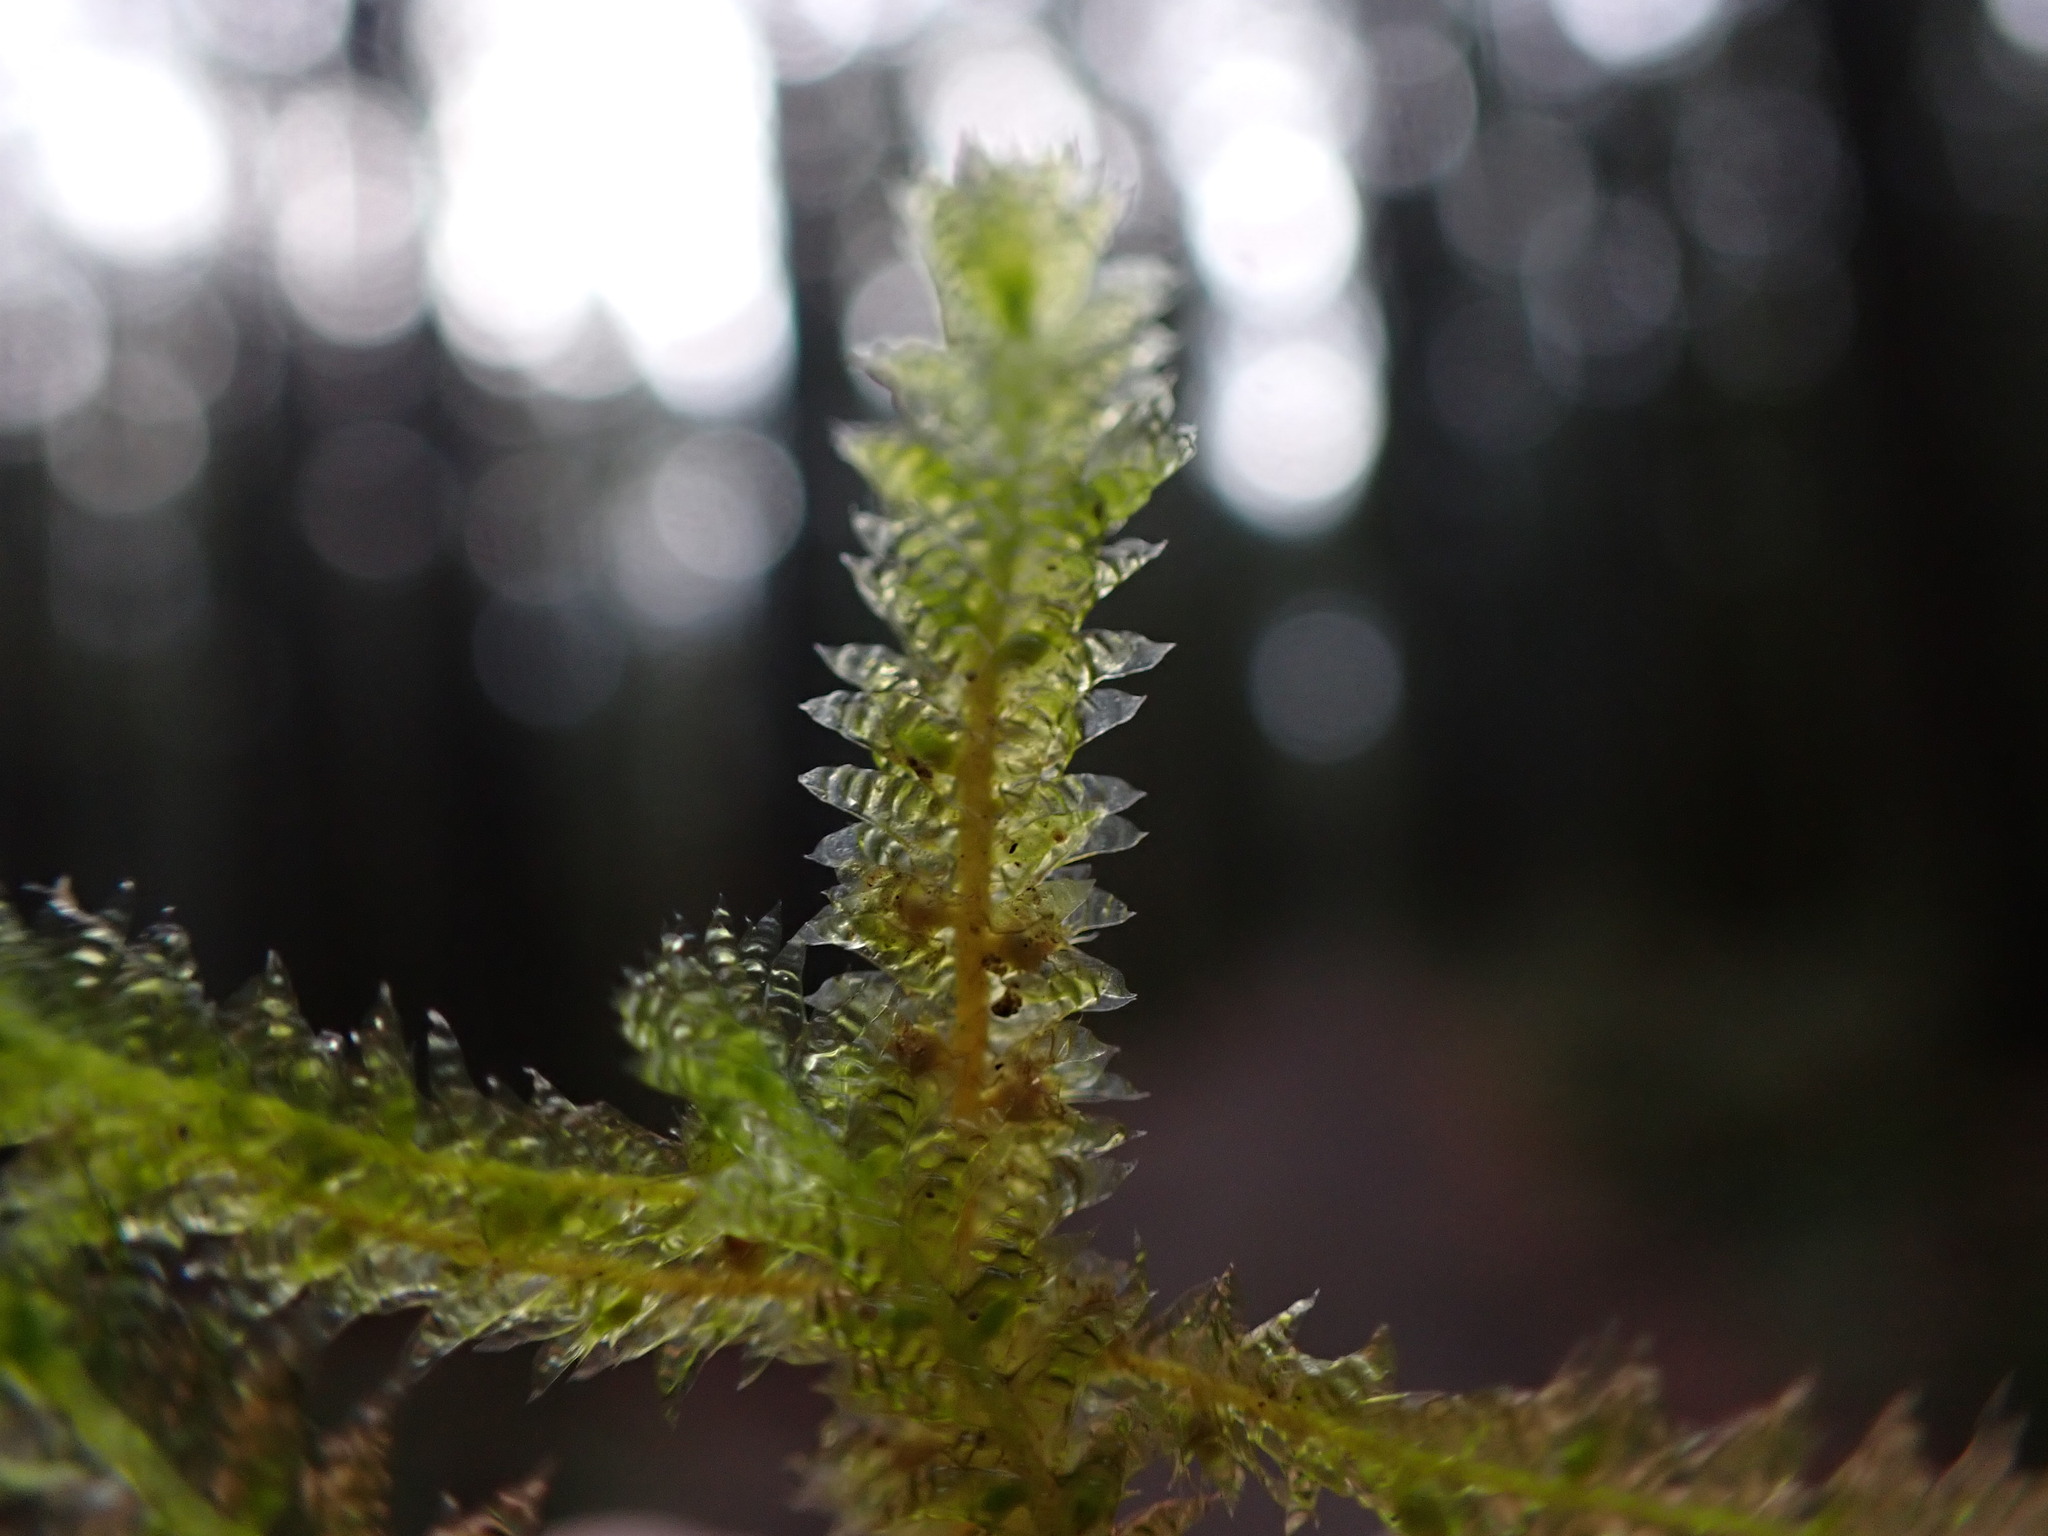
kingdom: Plantae
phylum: Bryophyta
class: Bryopsida
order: Hypnales
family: Neckeraceae
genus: Neckera
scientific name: Neckera douglasii
